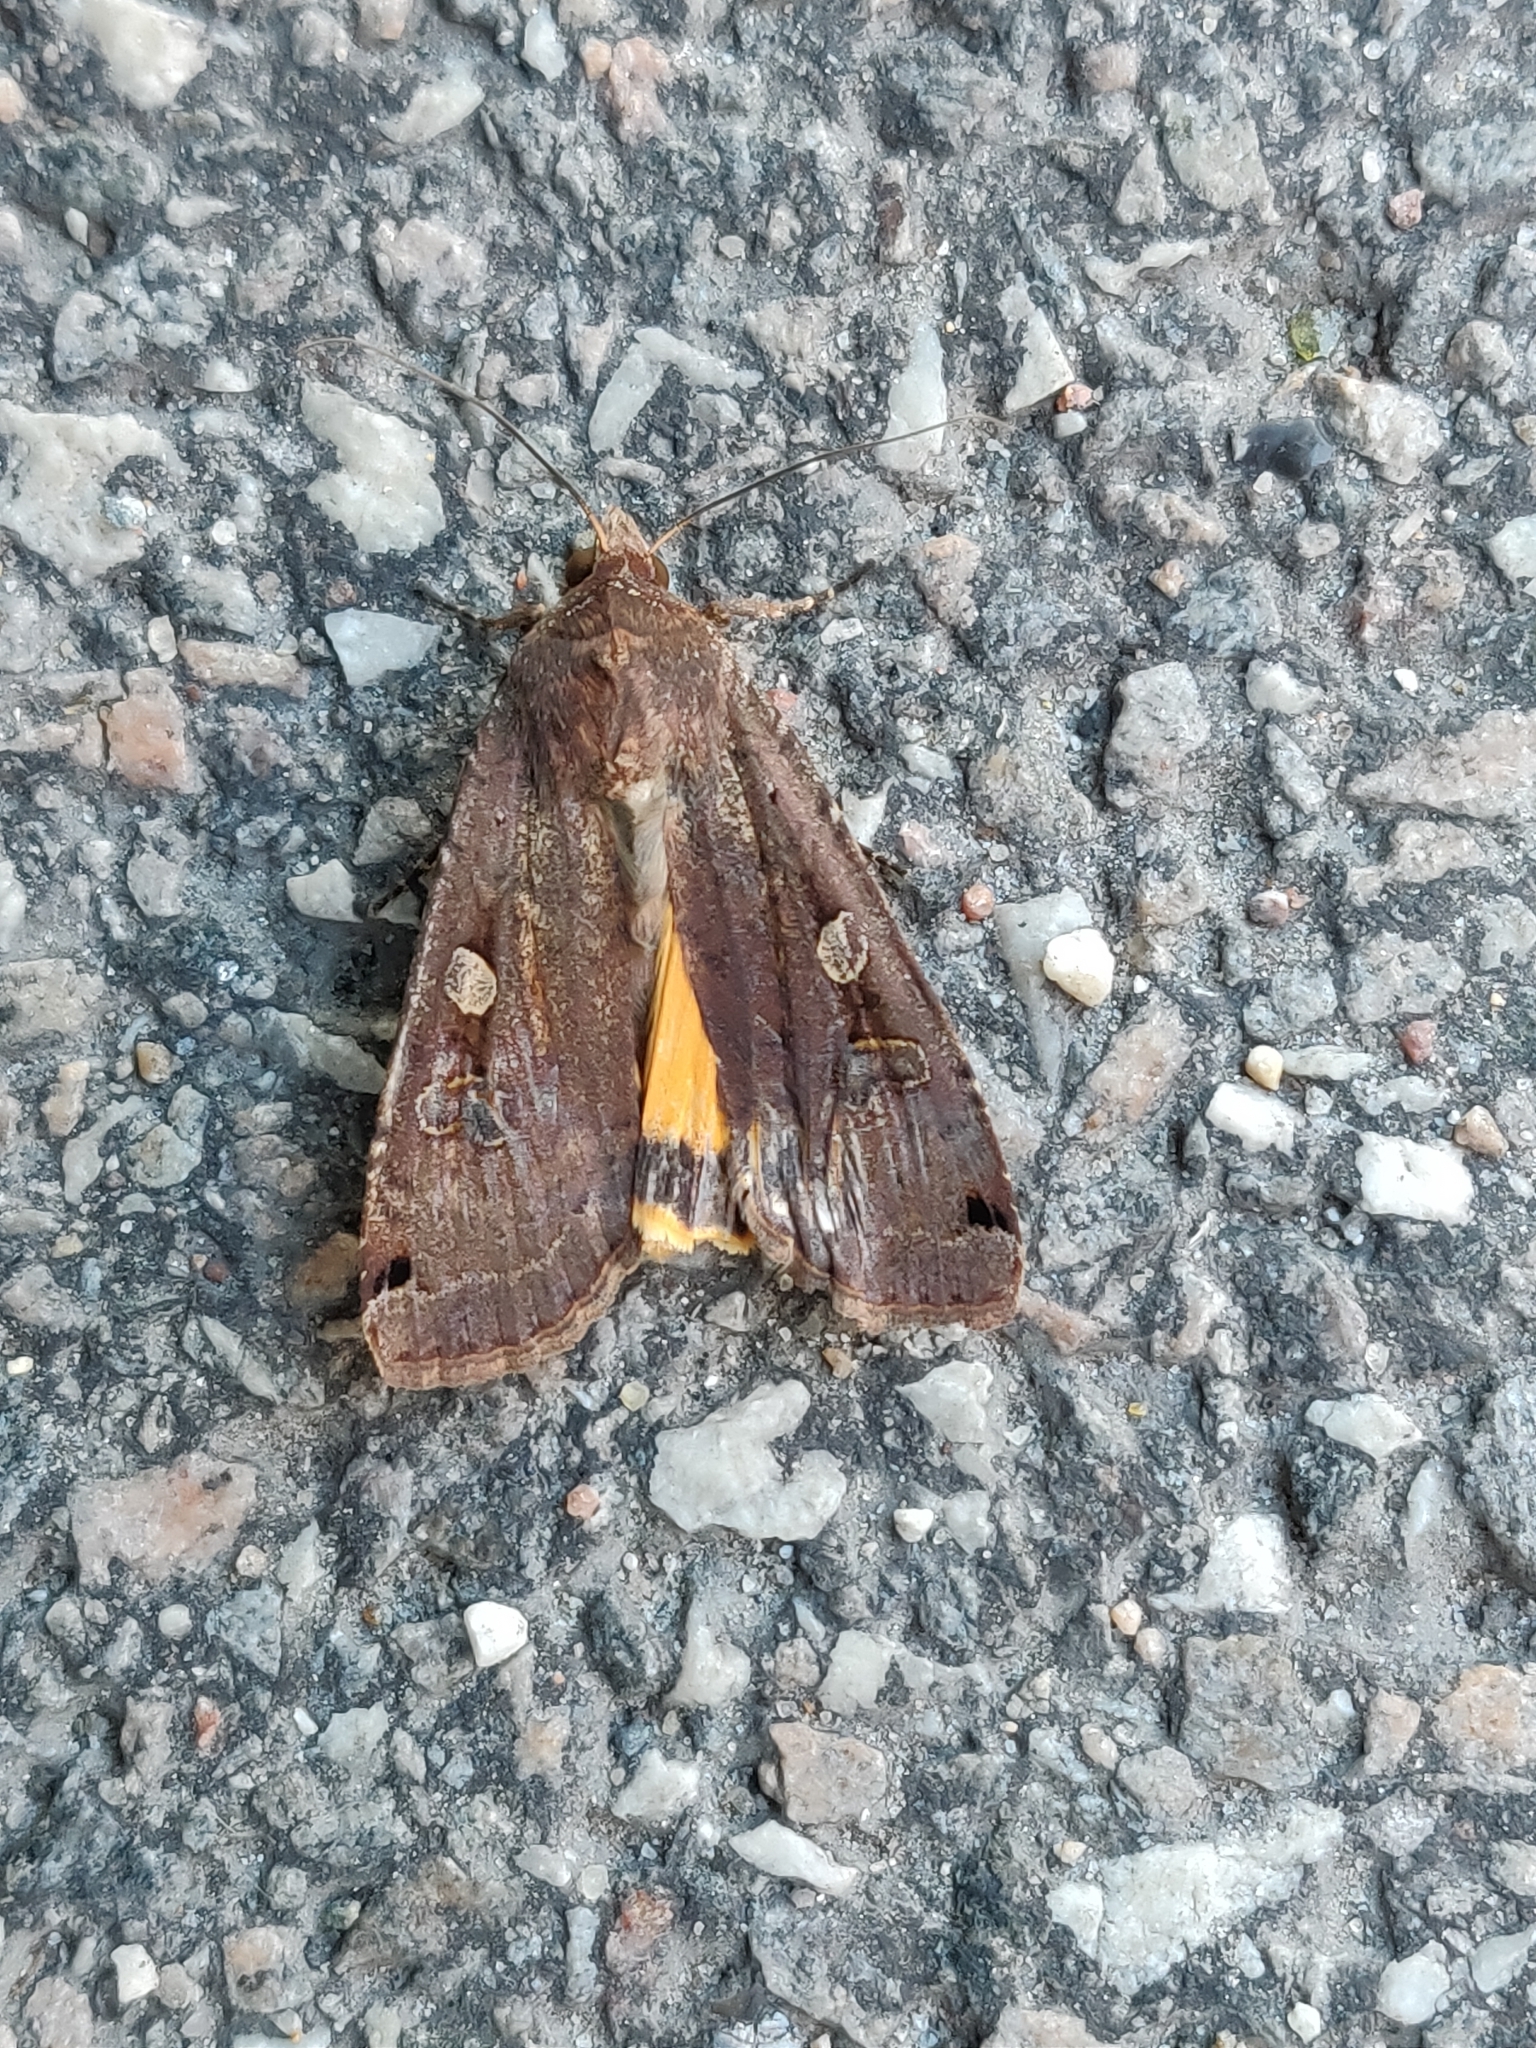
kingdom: Animalia
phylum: Arthropoda
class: Insecta
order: Lepidoptera
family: Noctuidae
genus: Noctua
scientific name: Noctua pronuba
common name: Large yellow underwing
